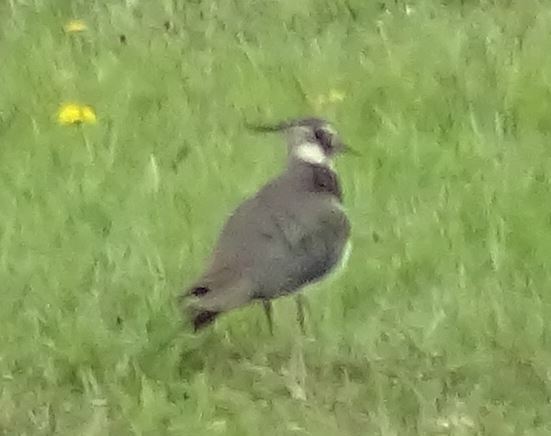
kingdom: Animalia
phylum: Chordata
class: Aves
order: Charadriiformes
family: Charadriidae
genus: Vanellus
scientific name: Vanellus vanellus
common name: Northern lapwing
